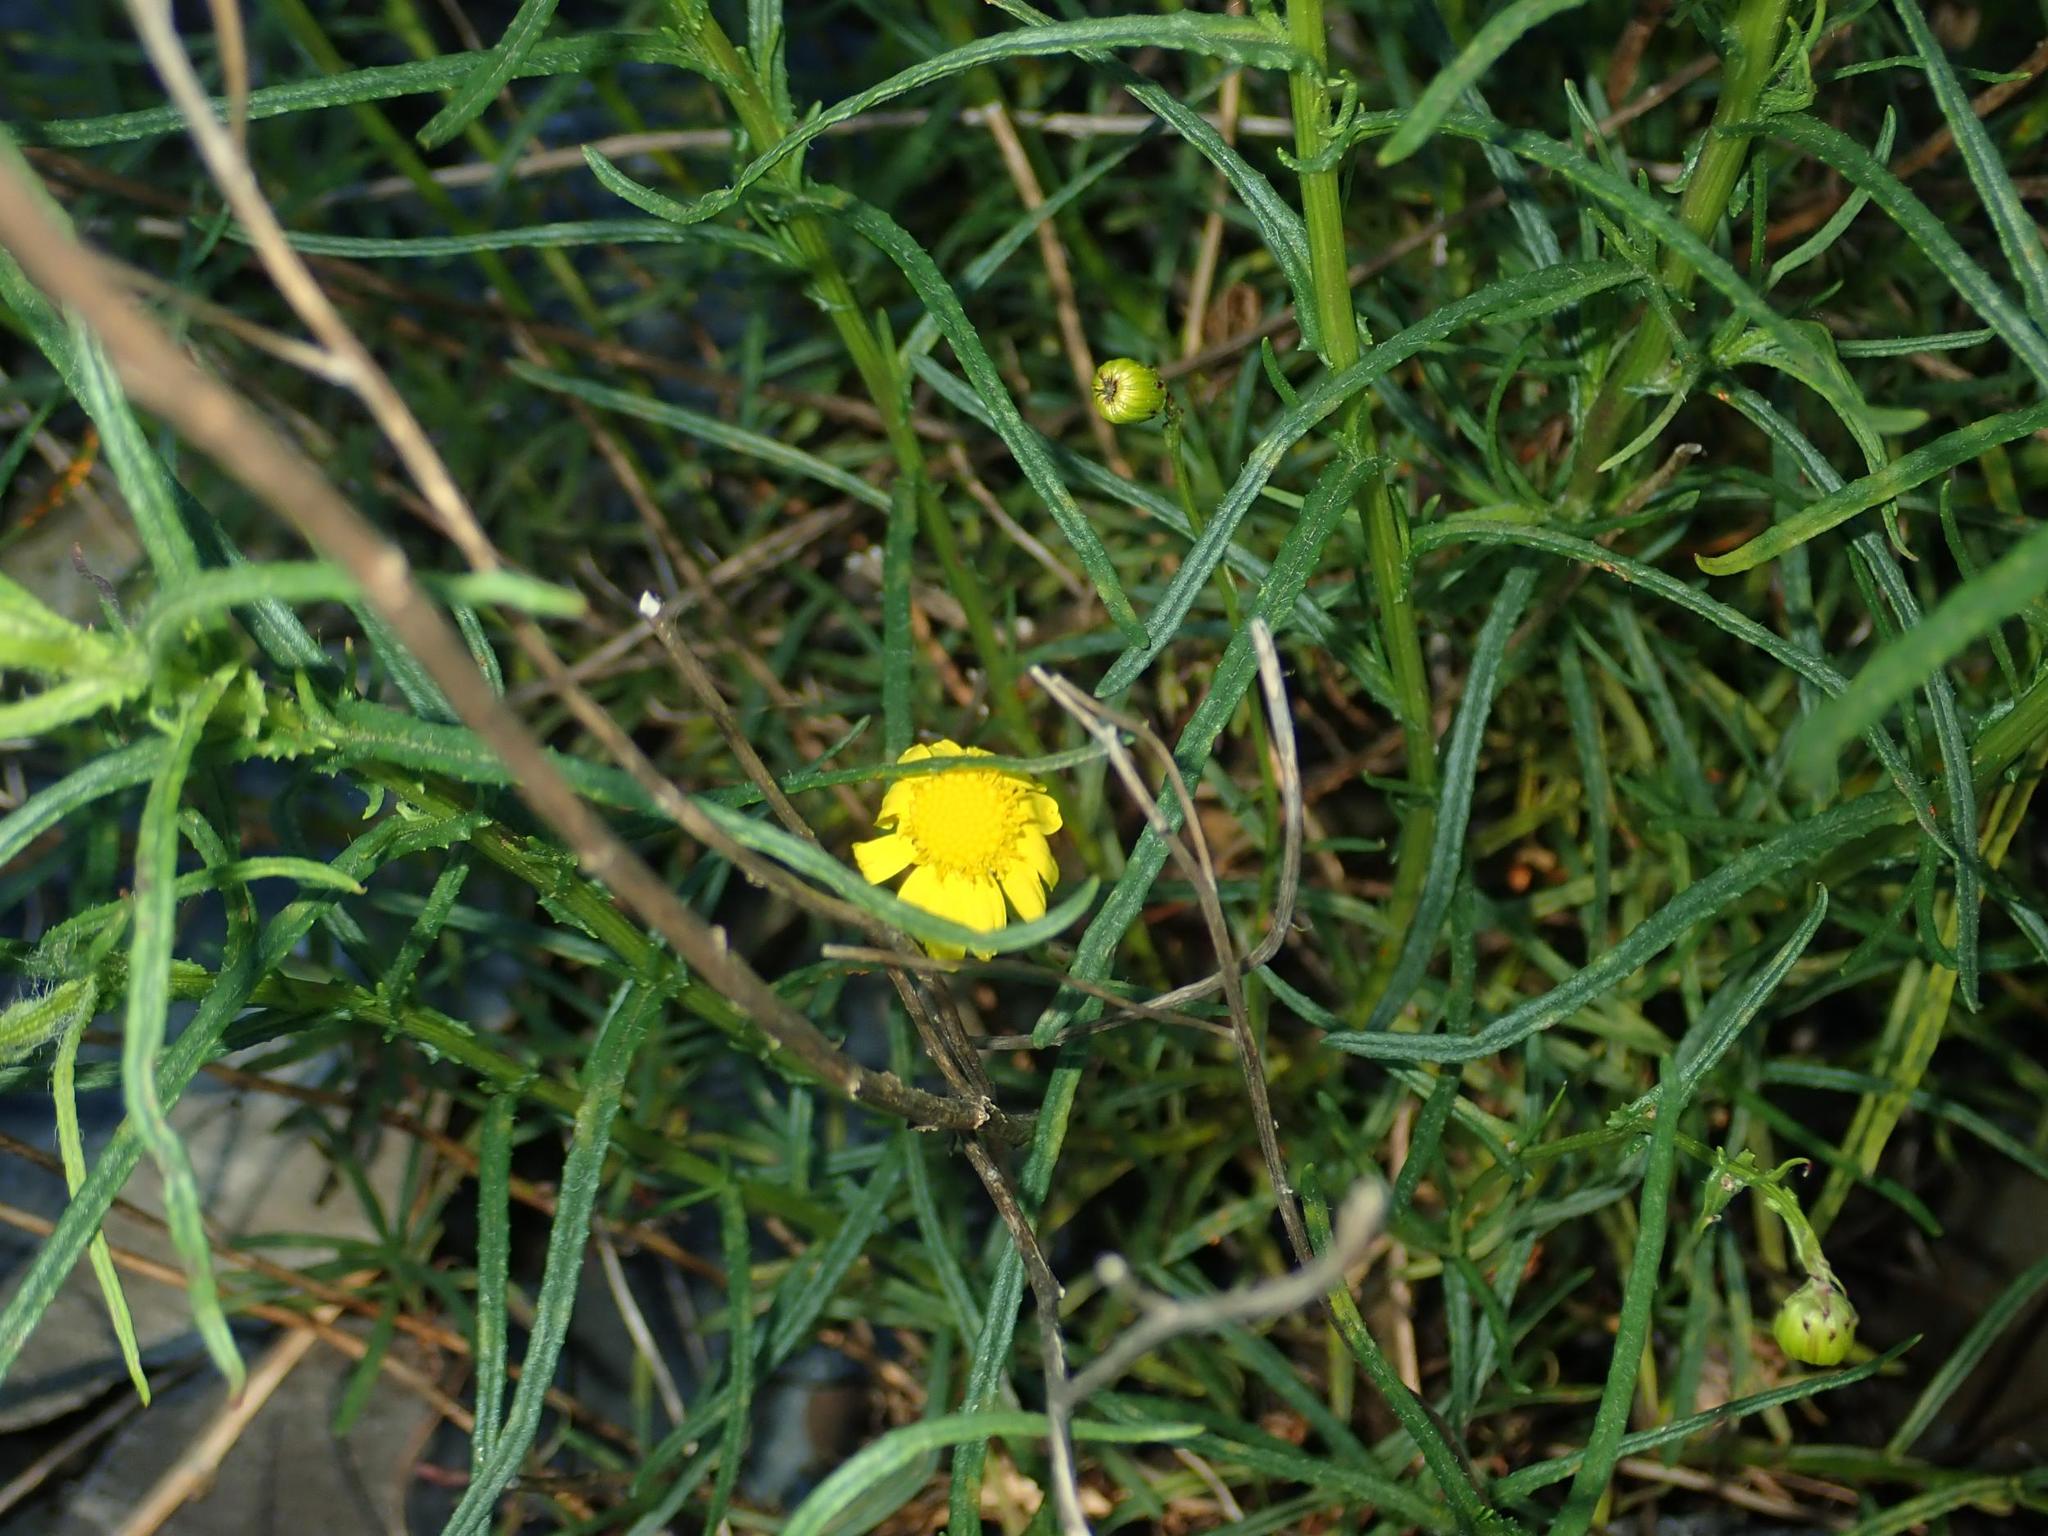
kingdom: Plantae
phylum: Tracheophyta
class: Magnoliopsida
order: Asterales
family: Asteraceae
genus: Senecio
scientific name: Senecio inaequidens
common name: Narrow-leaved ragwort
